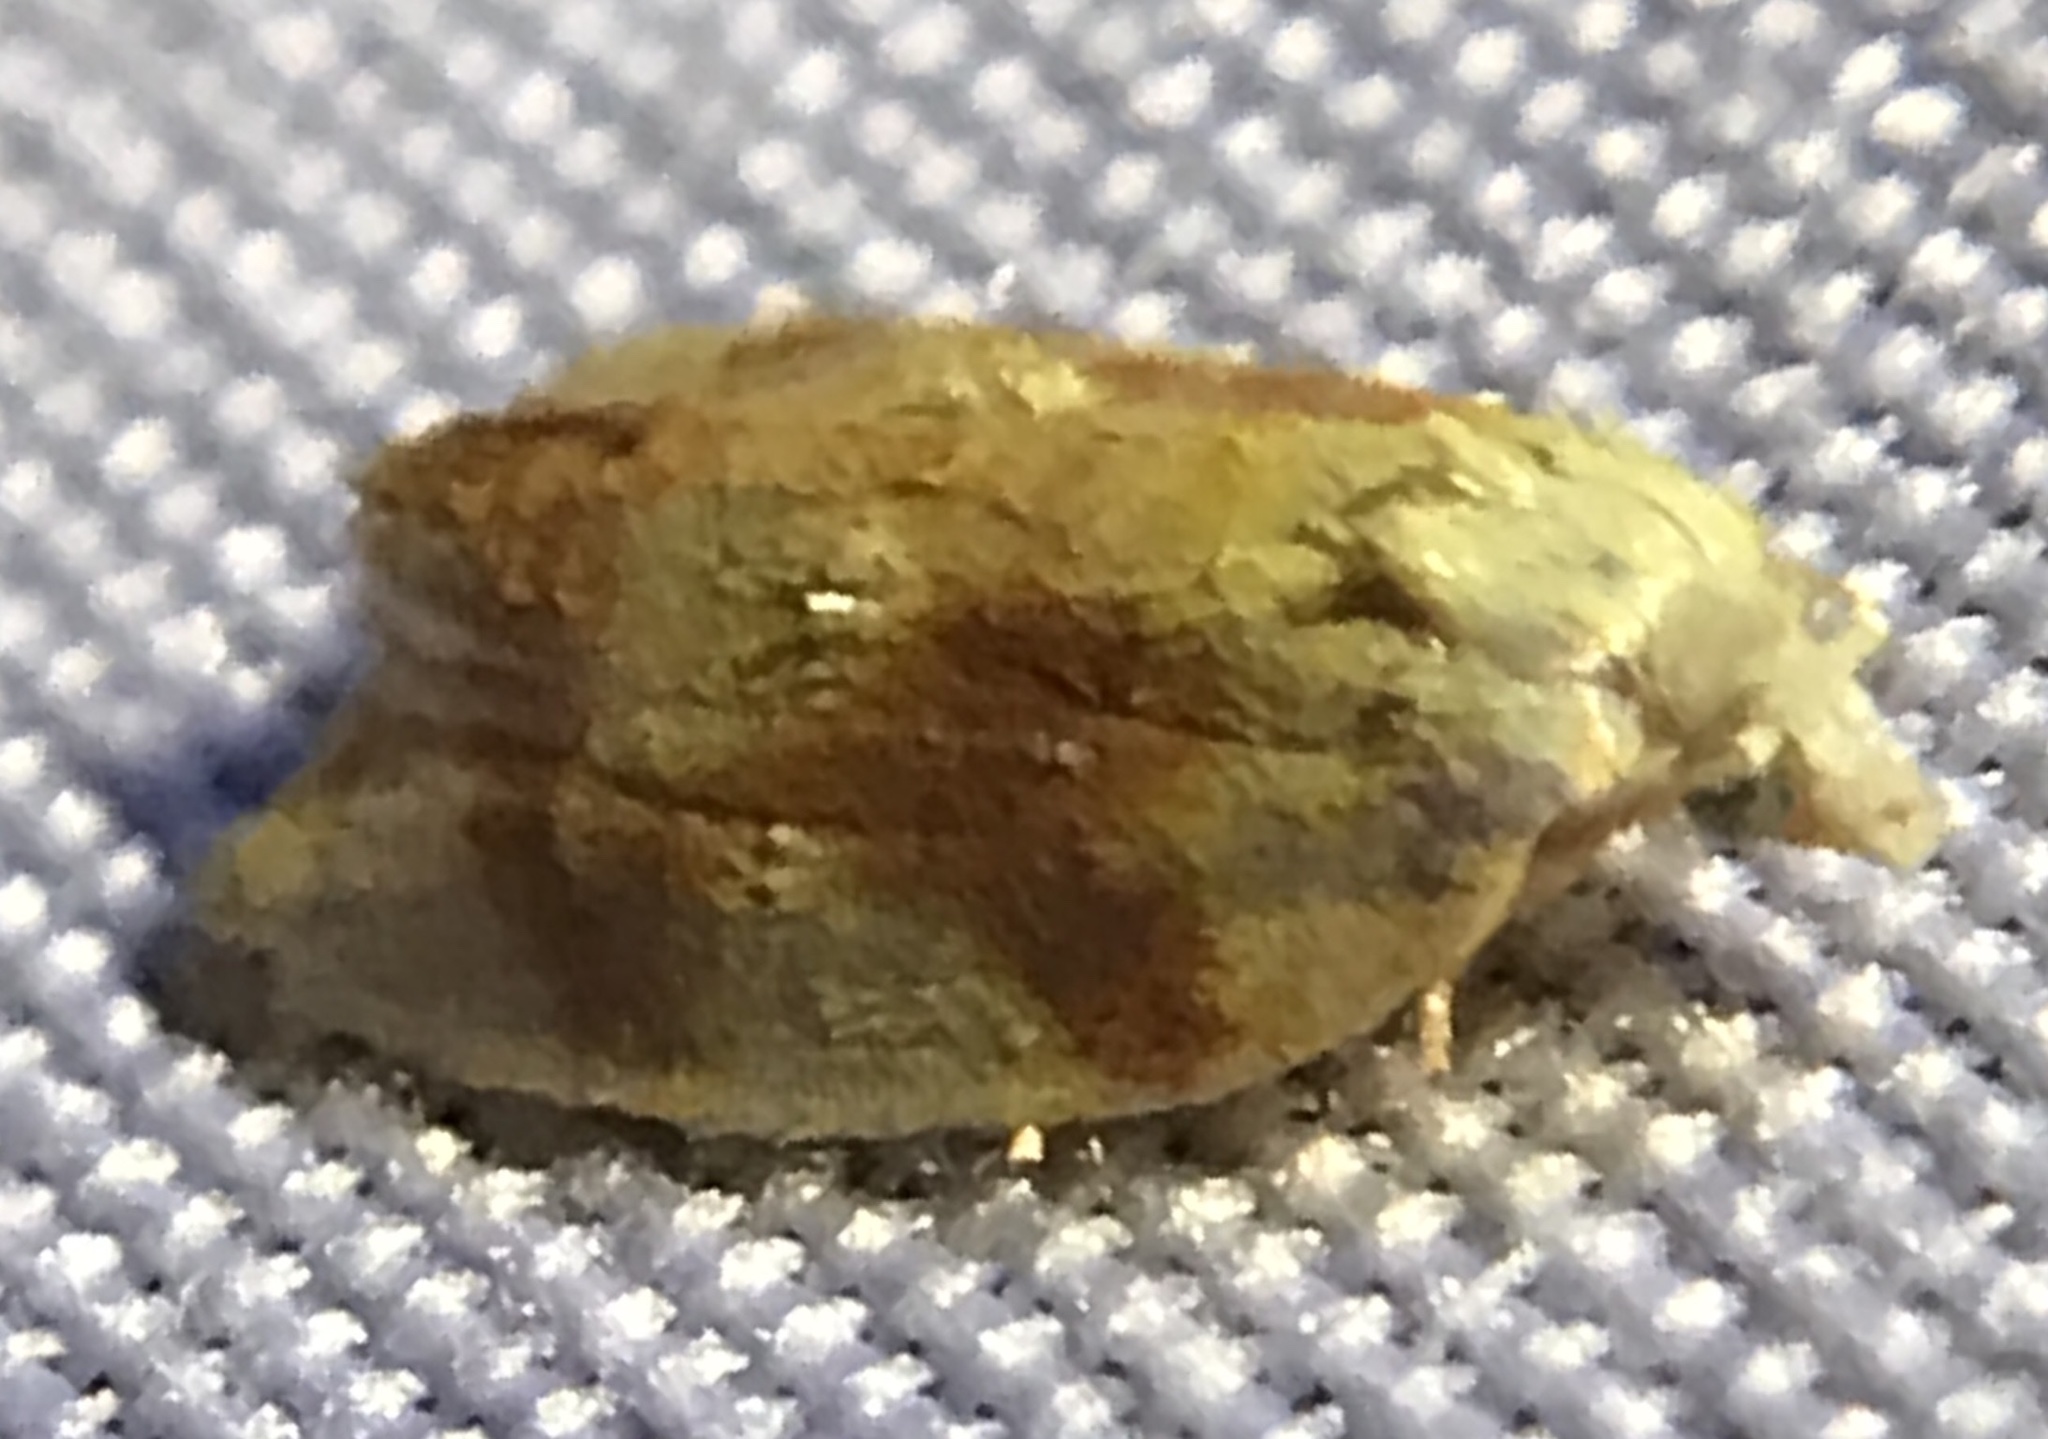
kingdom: Animalia
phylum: Arthropoda
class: Insecta
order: Lepidoptera
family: Tortricidae
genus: Acleris
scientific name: Acleris semipurpurana
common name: Oak leaftier moth
